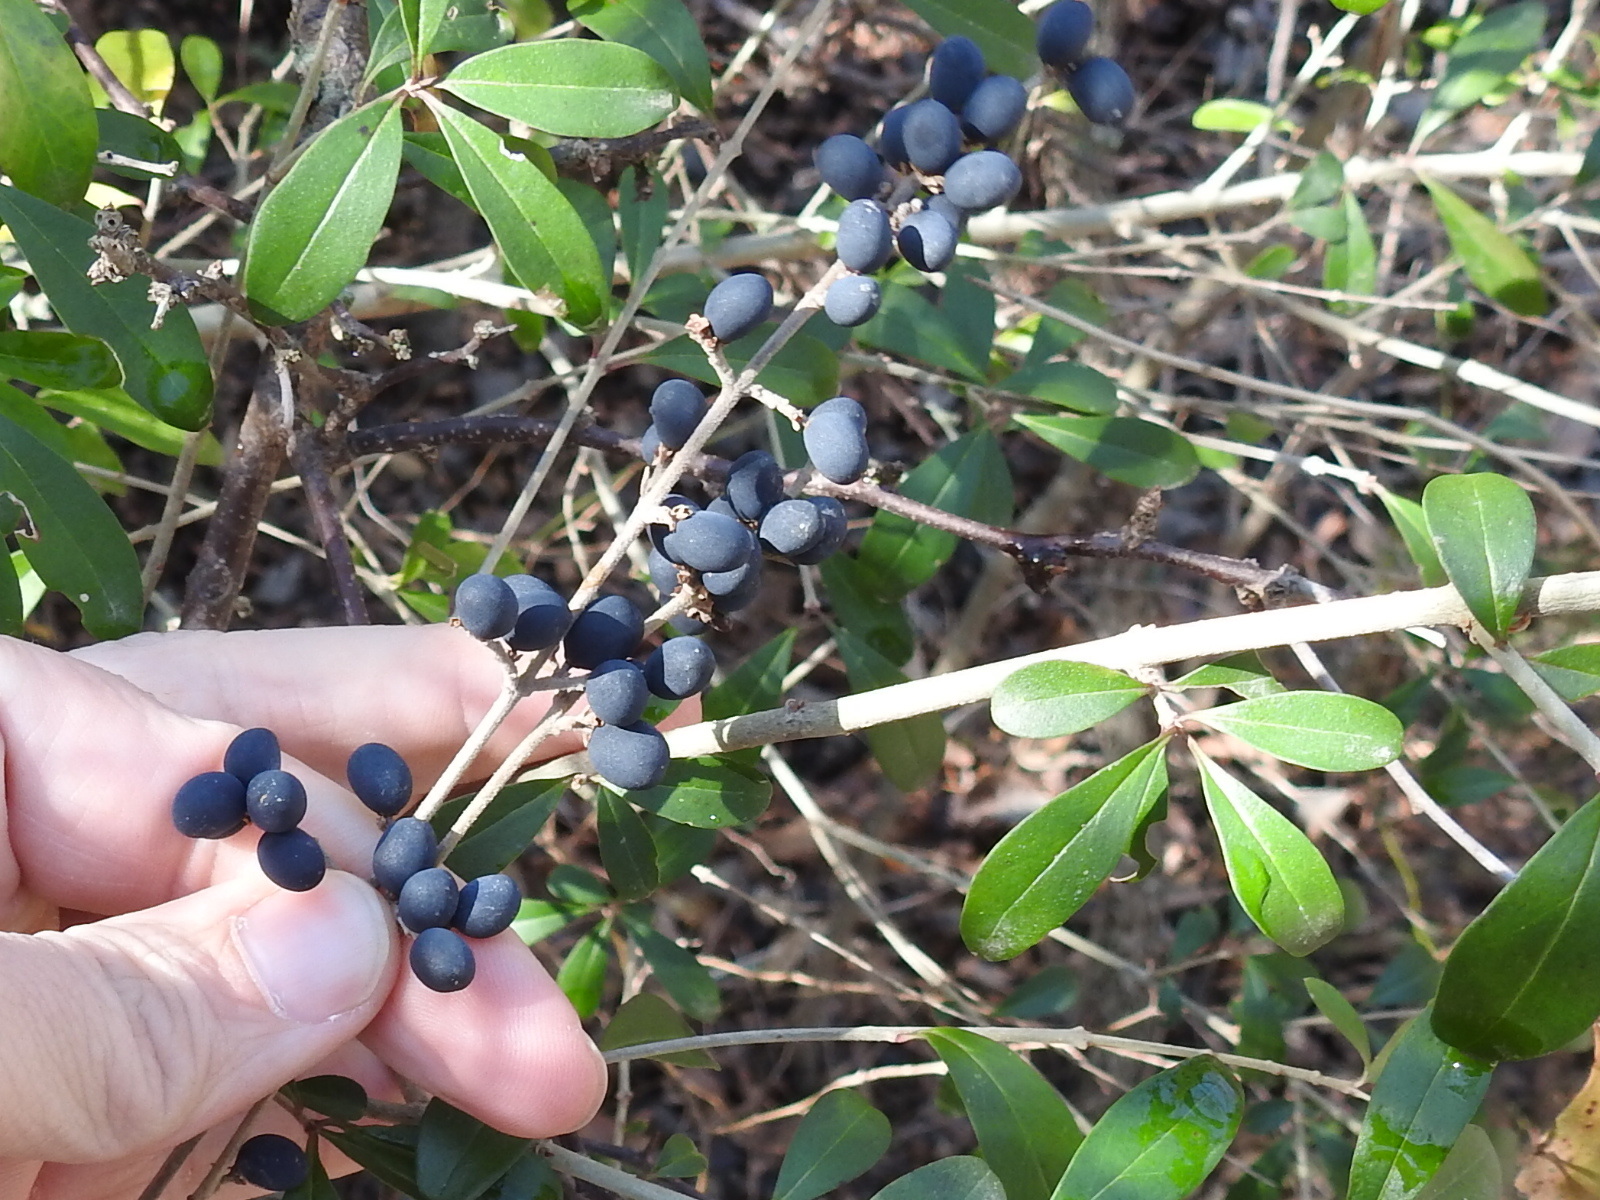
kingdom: Plantae
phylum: Tracheophyta
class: Magnoliopsida
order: Lamiales
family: Oleaceae
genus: Ligustrum
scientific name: Ligustrum quihoui
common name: Waxyleaf privet
